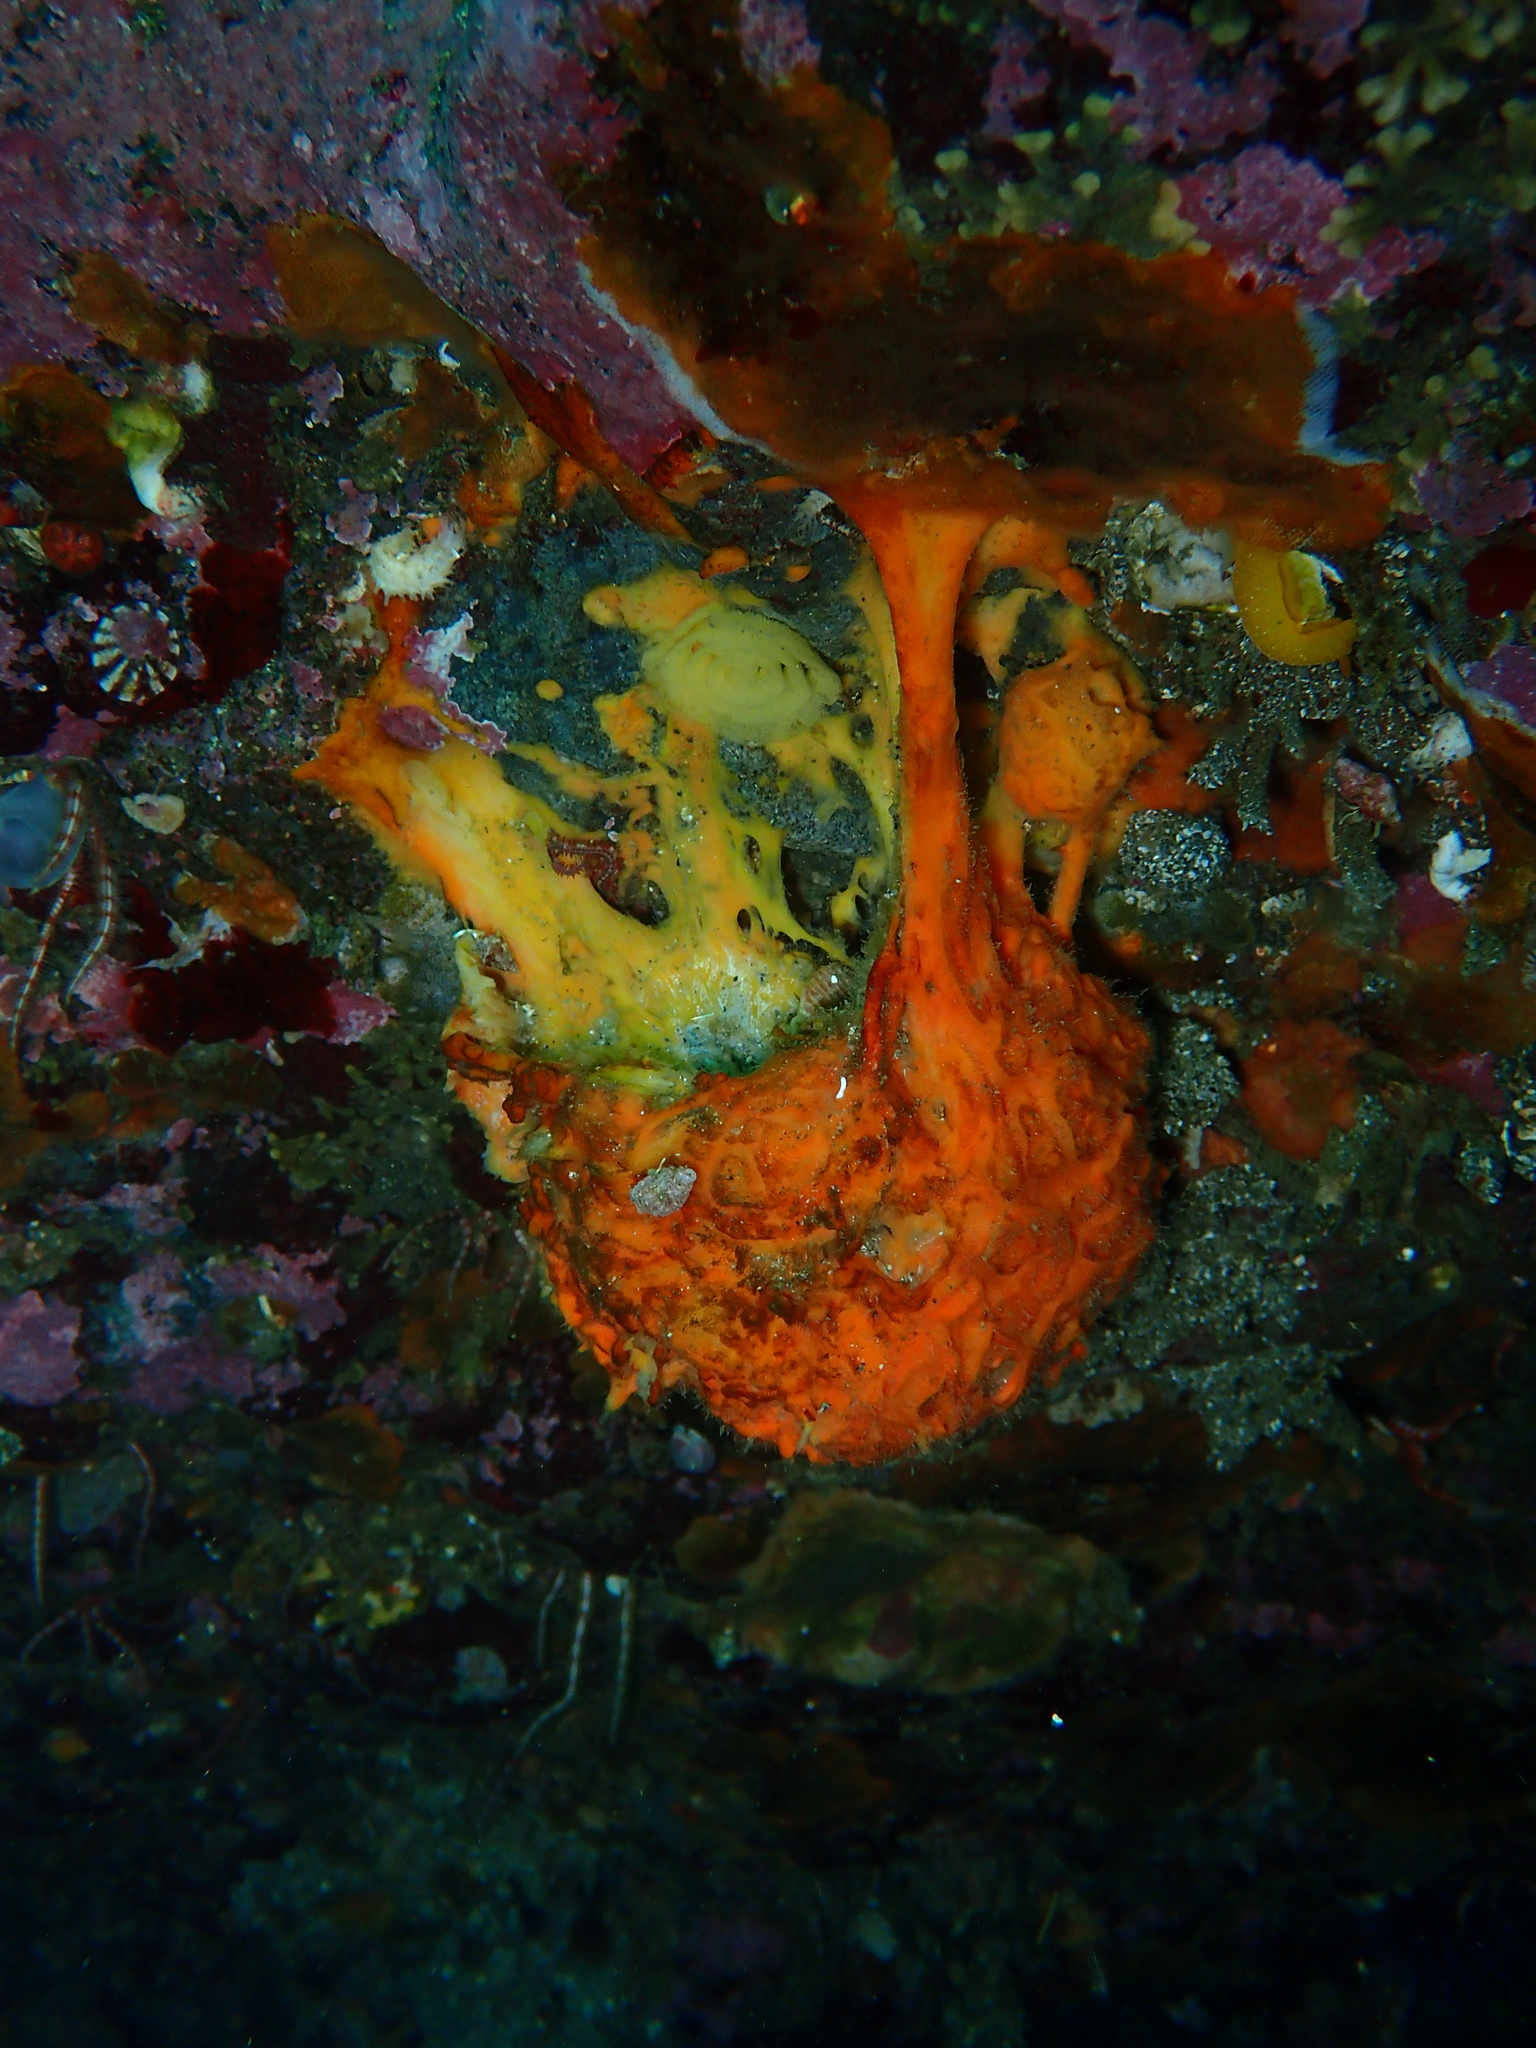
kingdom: Animalia
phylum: Porifera
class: Demospongiae
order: Tethyida
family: Tethyidae
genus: Tethya
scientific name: Tethya californiana
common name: Orange rough ball horny sponge
